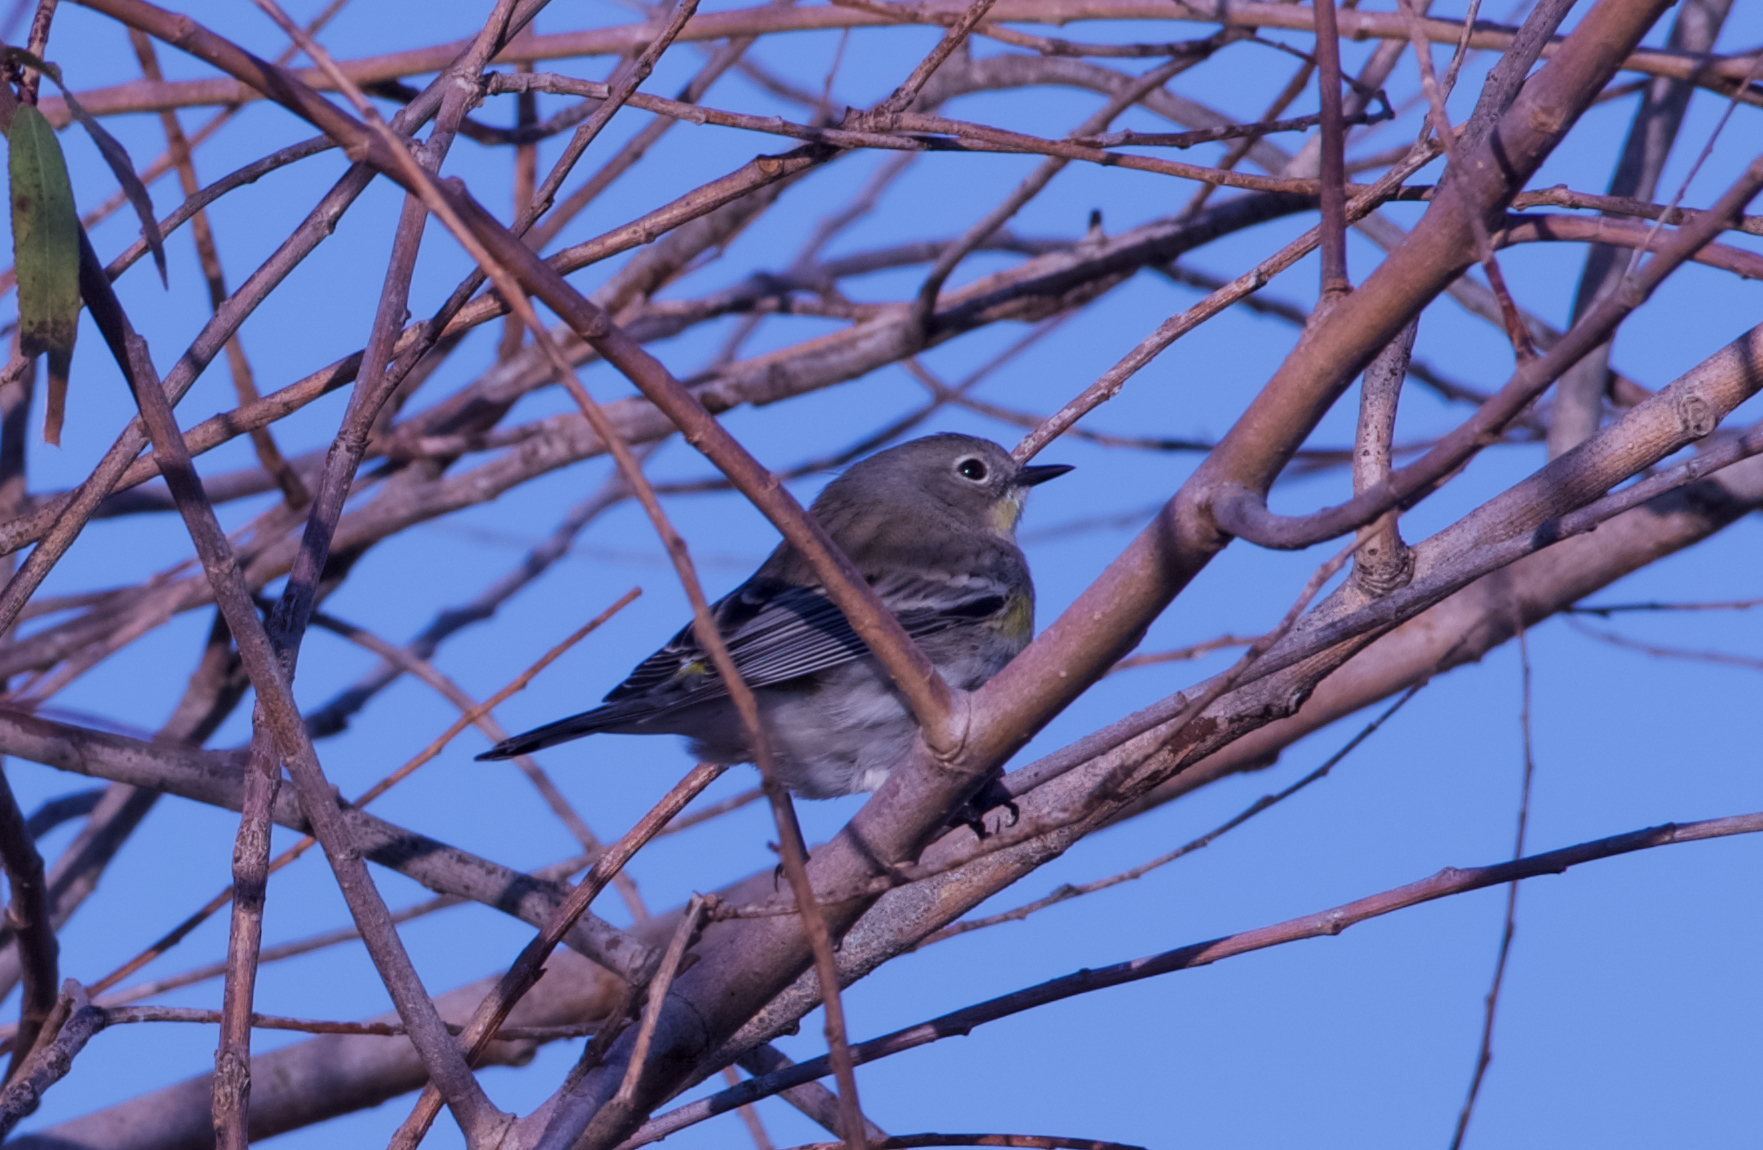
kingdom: Animalia
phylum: Chordata
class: Aves
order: Passeriformes
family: Parulidae
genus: Setophaga
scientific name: Setophaga coronata
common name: Myrtle warbler
